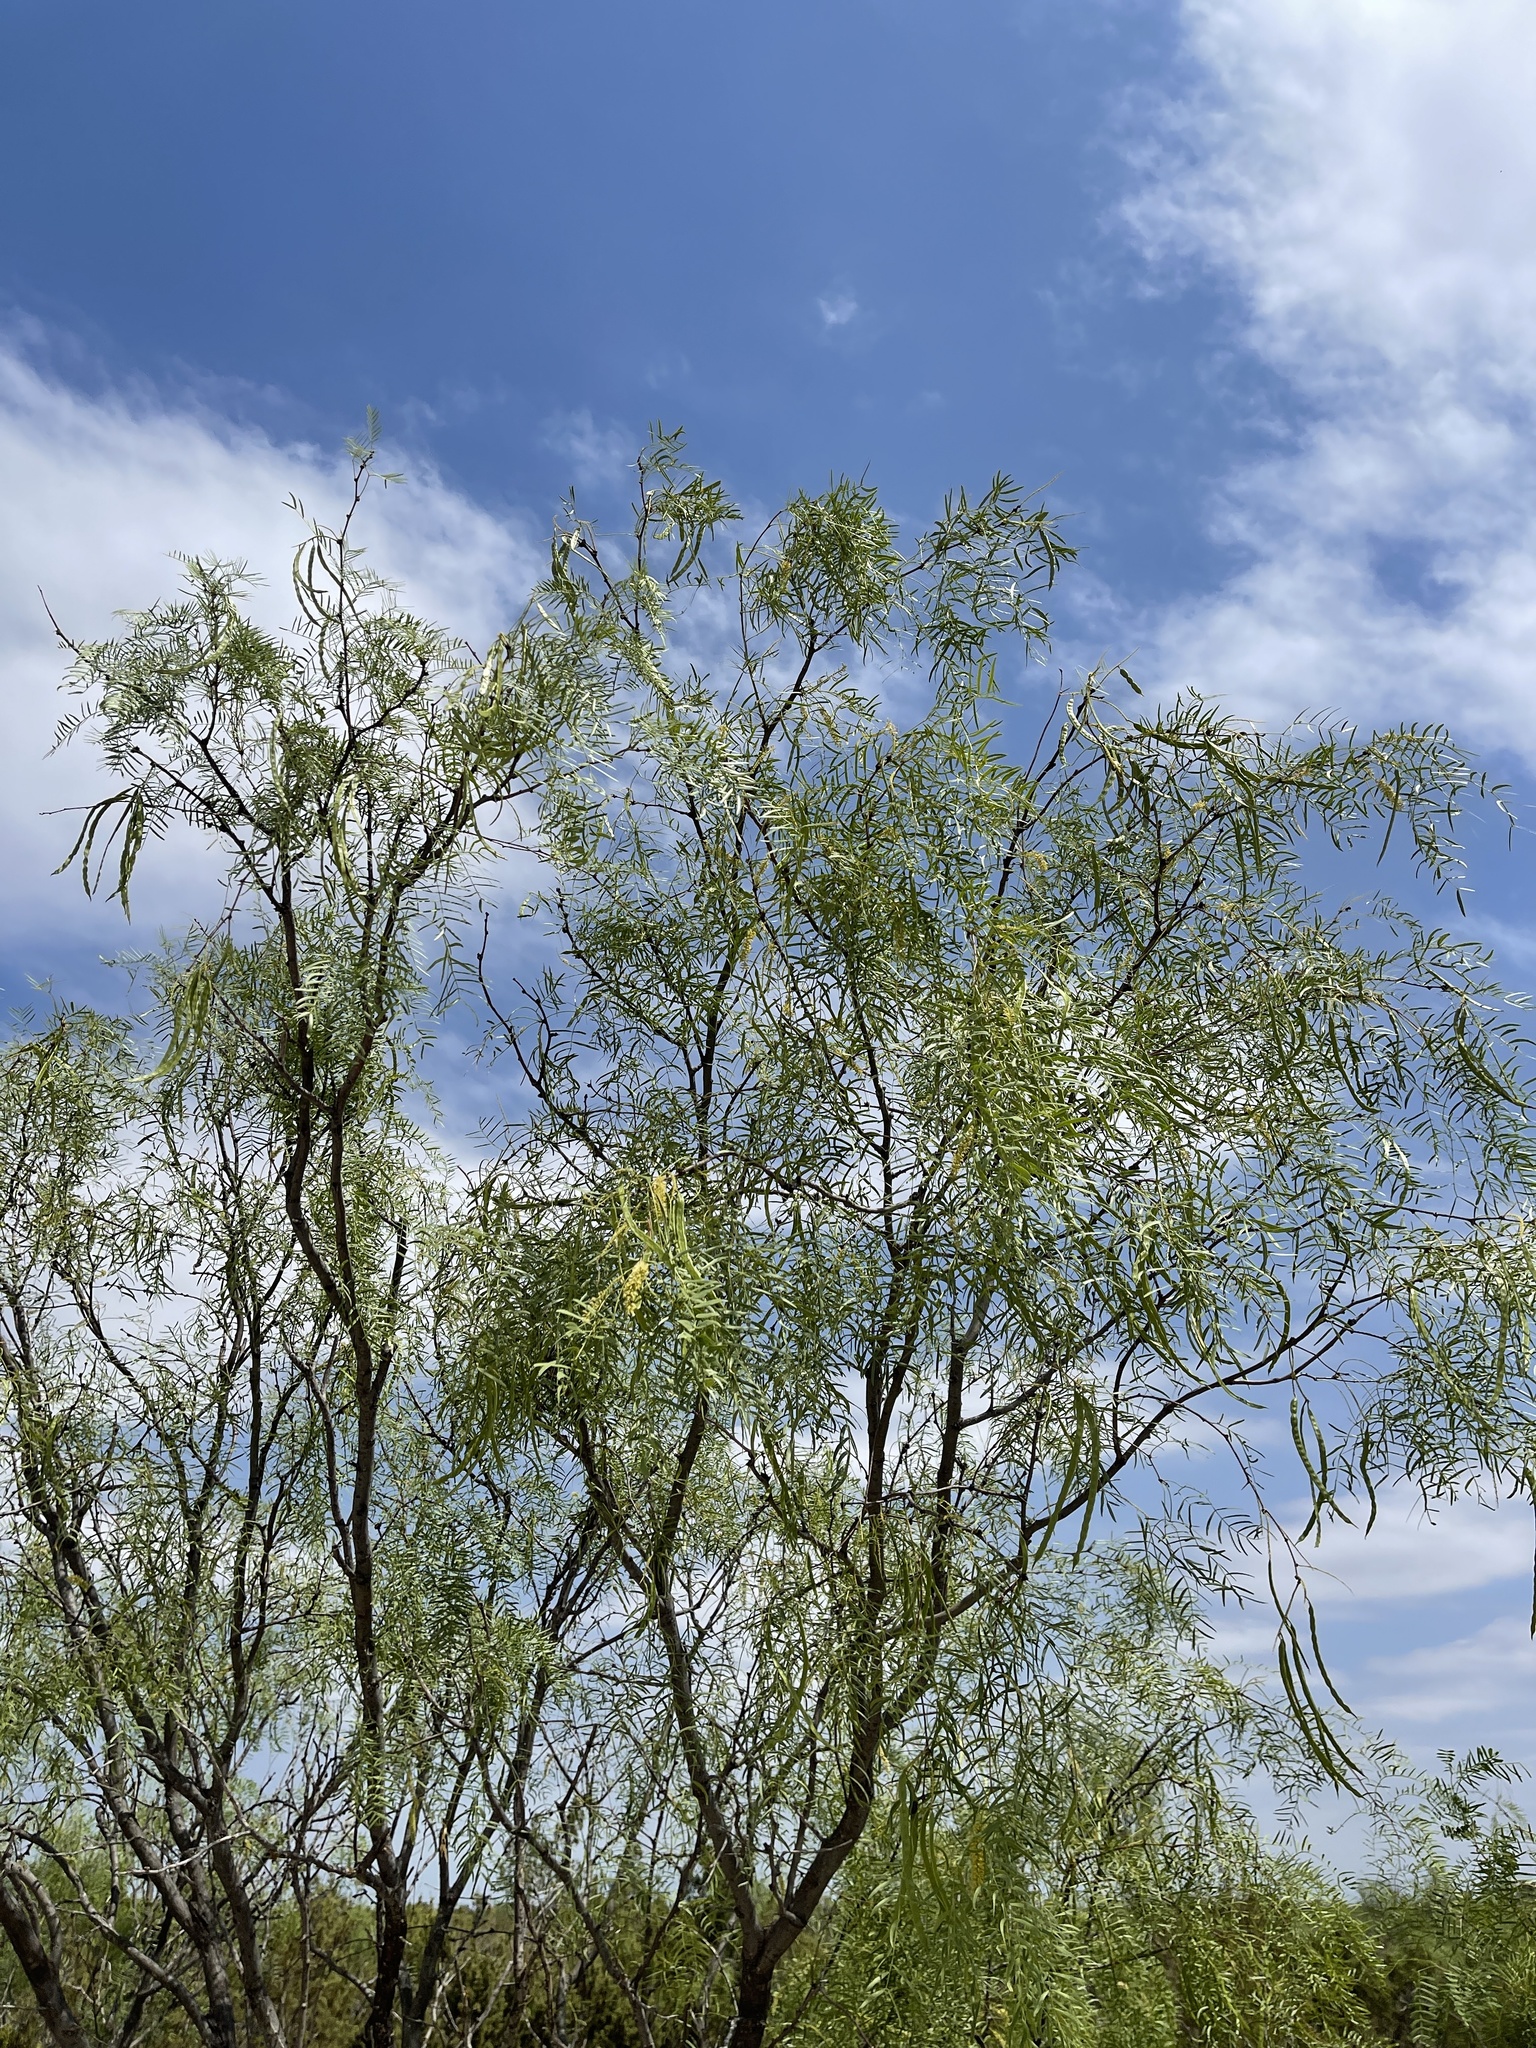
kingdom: Plantae
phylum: Tracheophyta
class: Magnoliopsida
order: Fabales
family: Fabaceae
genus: Prosopis
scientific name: Prosopis glandulosa
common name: Honey mesquite
